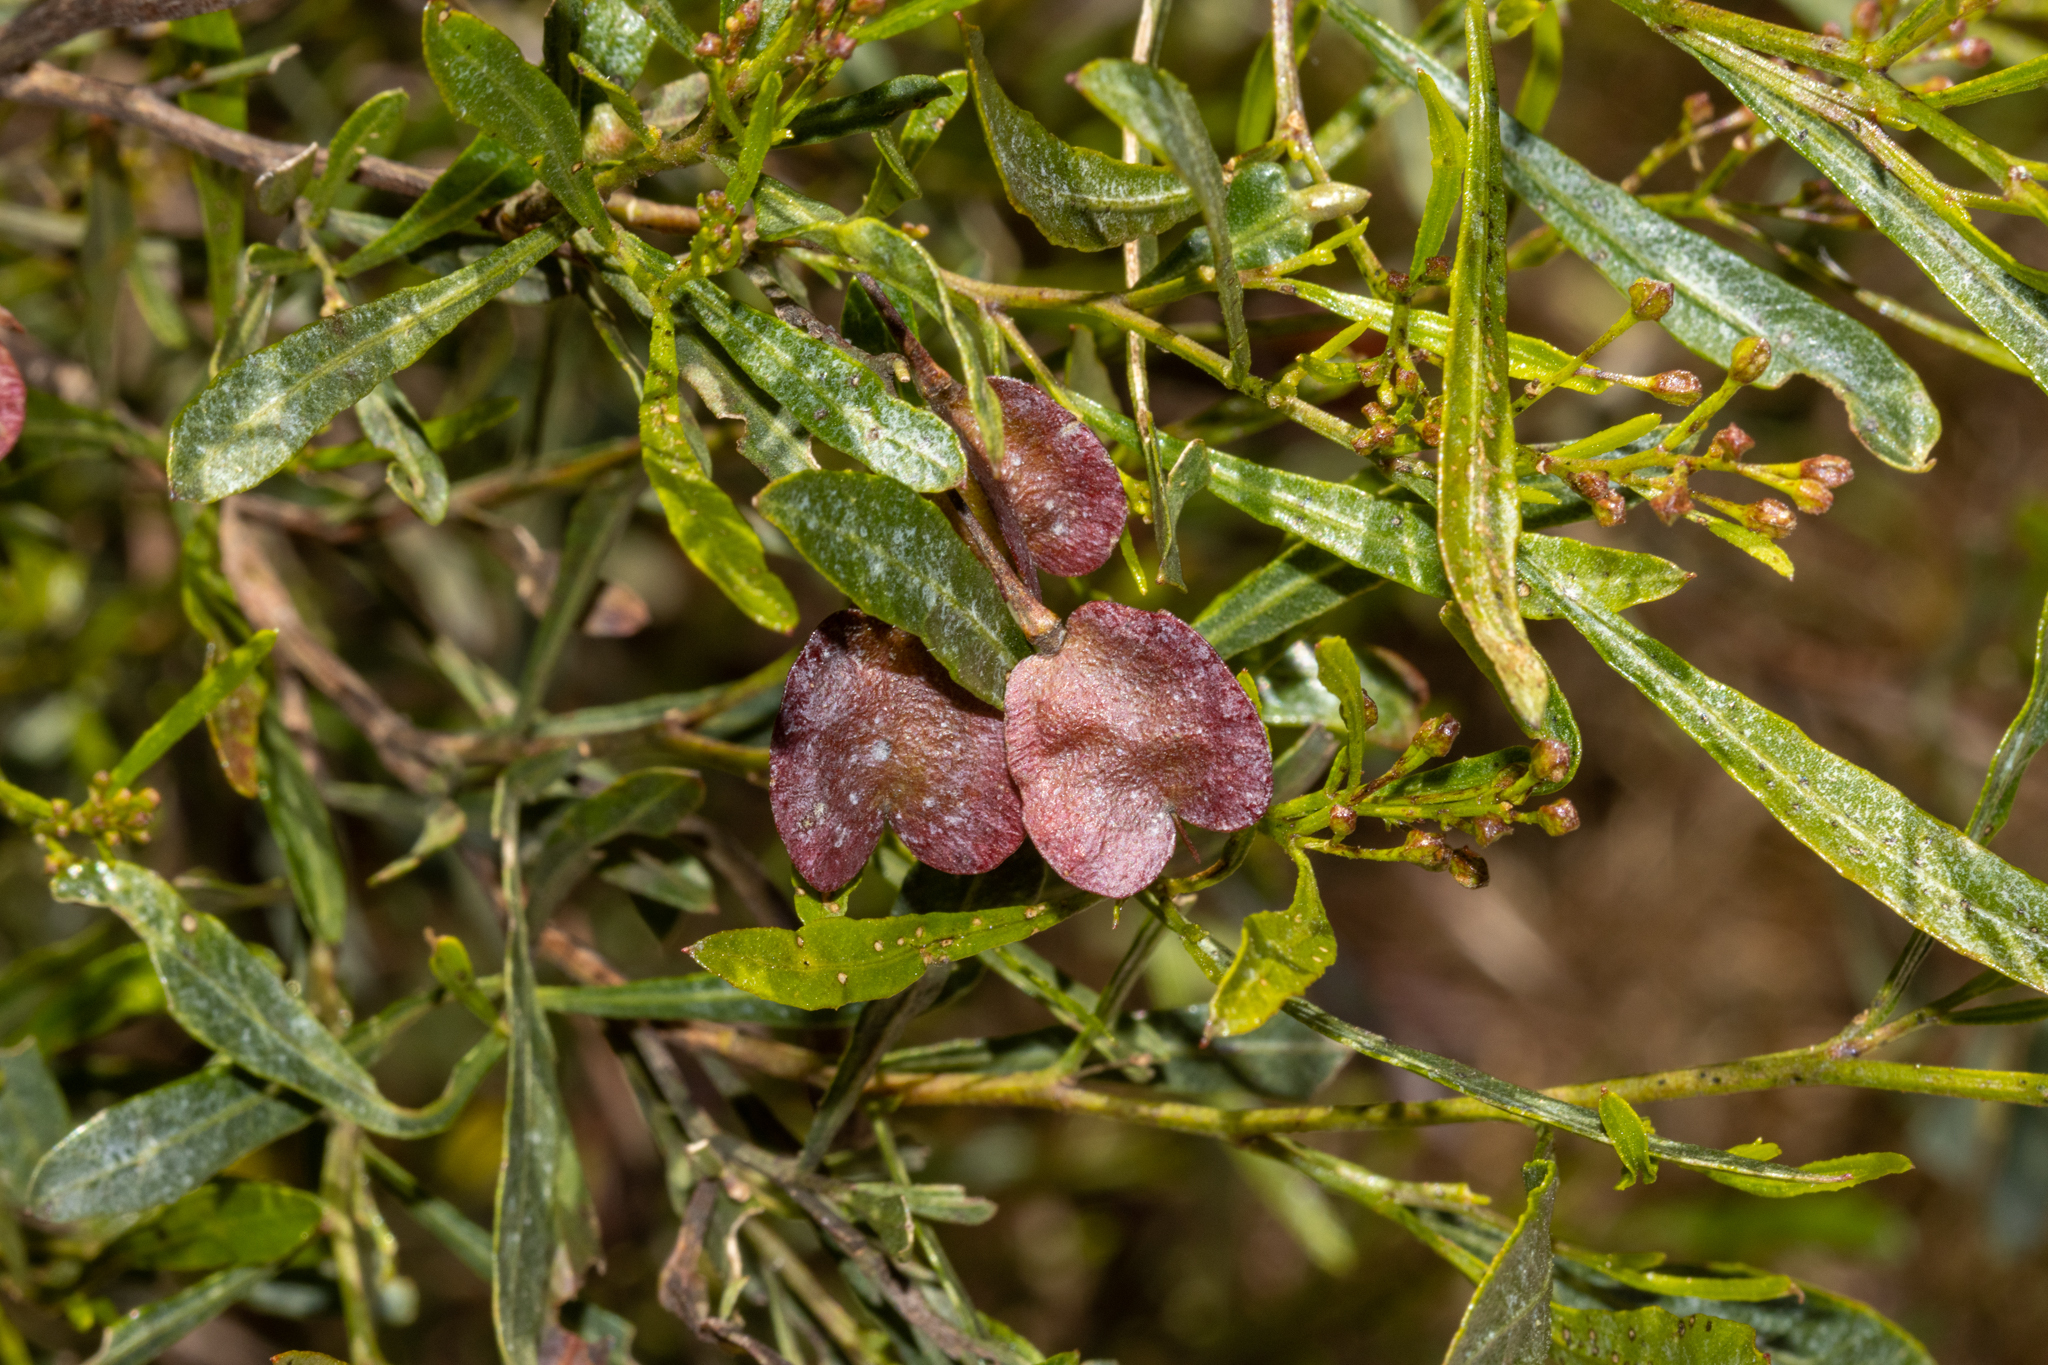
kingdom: Plantae
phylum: Tracheophyta
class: Magnoliopsida
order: Sapindales
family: Sapindaceae
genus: Dodonaea
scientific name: Dodonaea viscosa
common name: Hopbush
